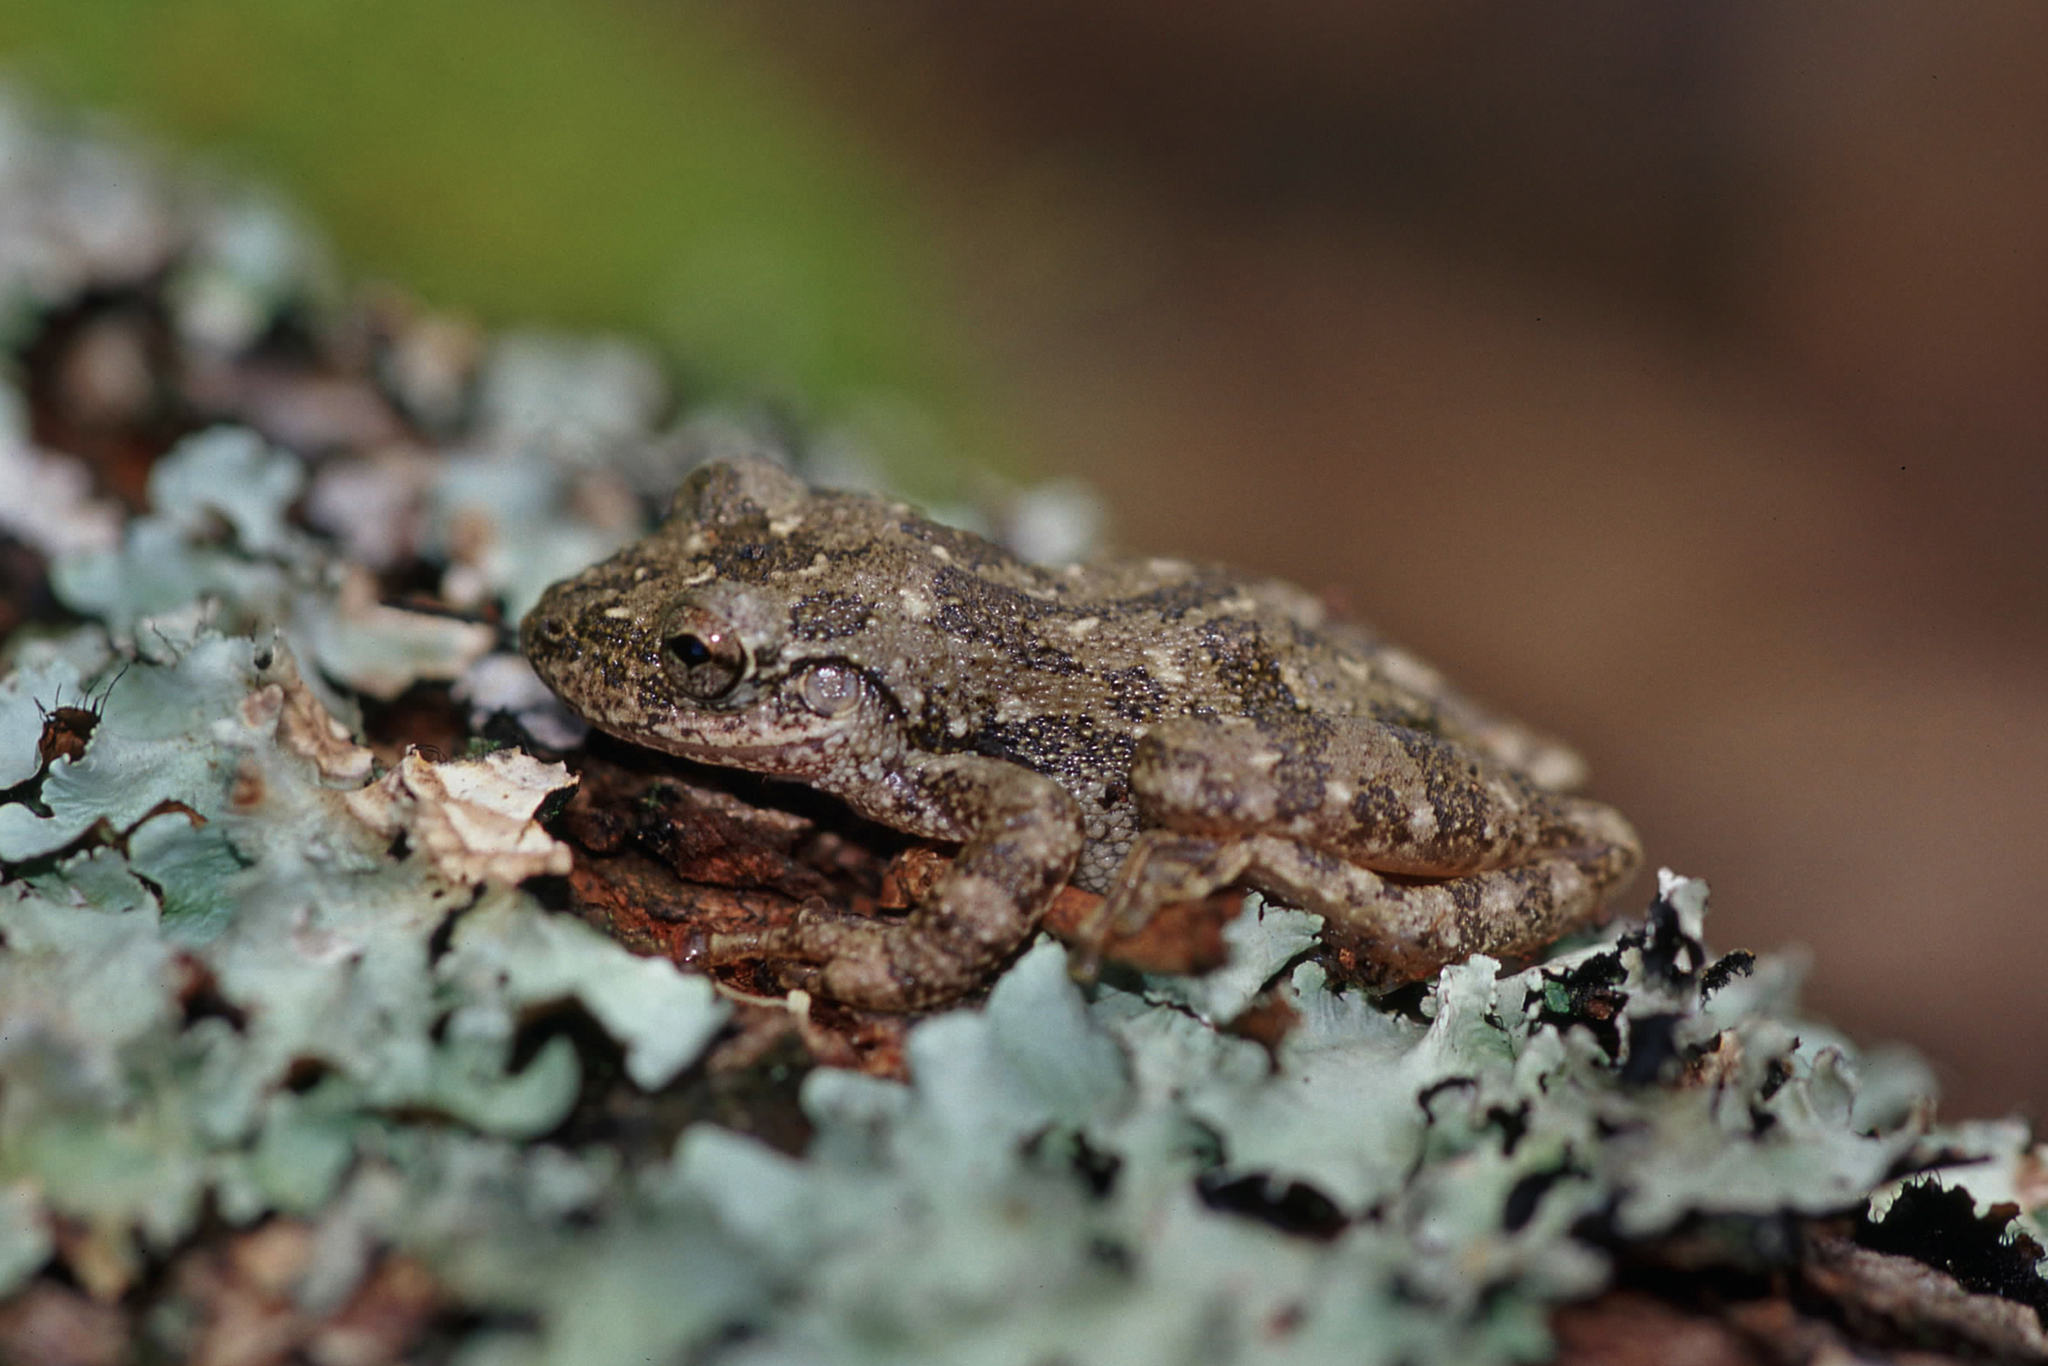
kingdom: Animalia
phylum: Chordata
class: Amphibia
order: Anura
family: Hylidae
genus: Scinax
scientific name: Scinax granulatus
